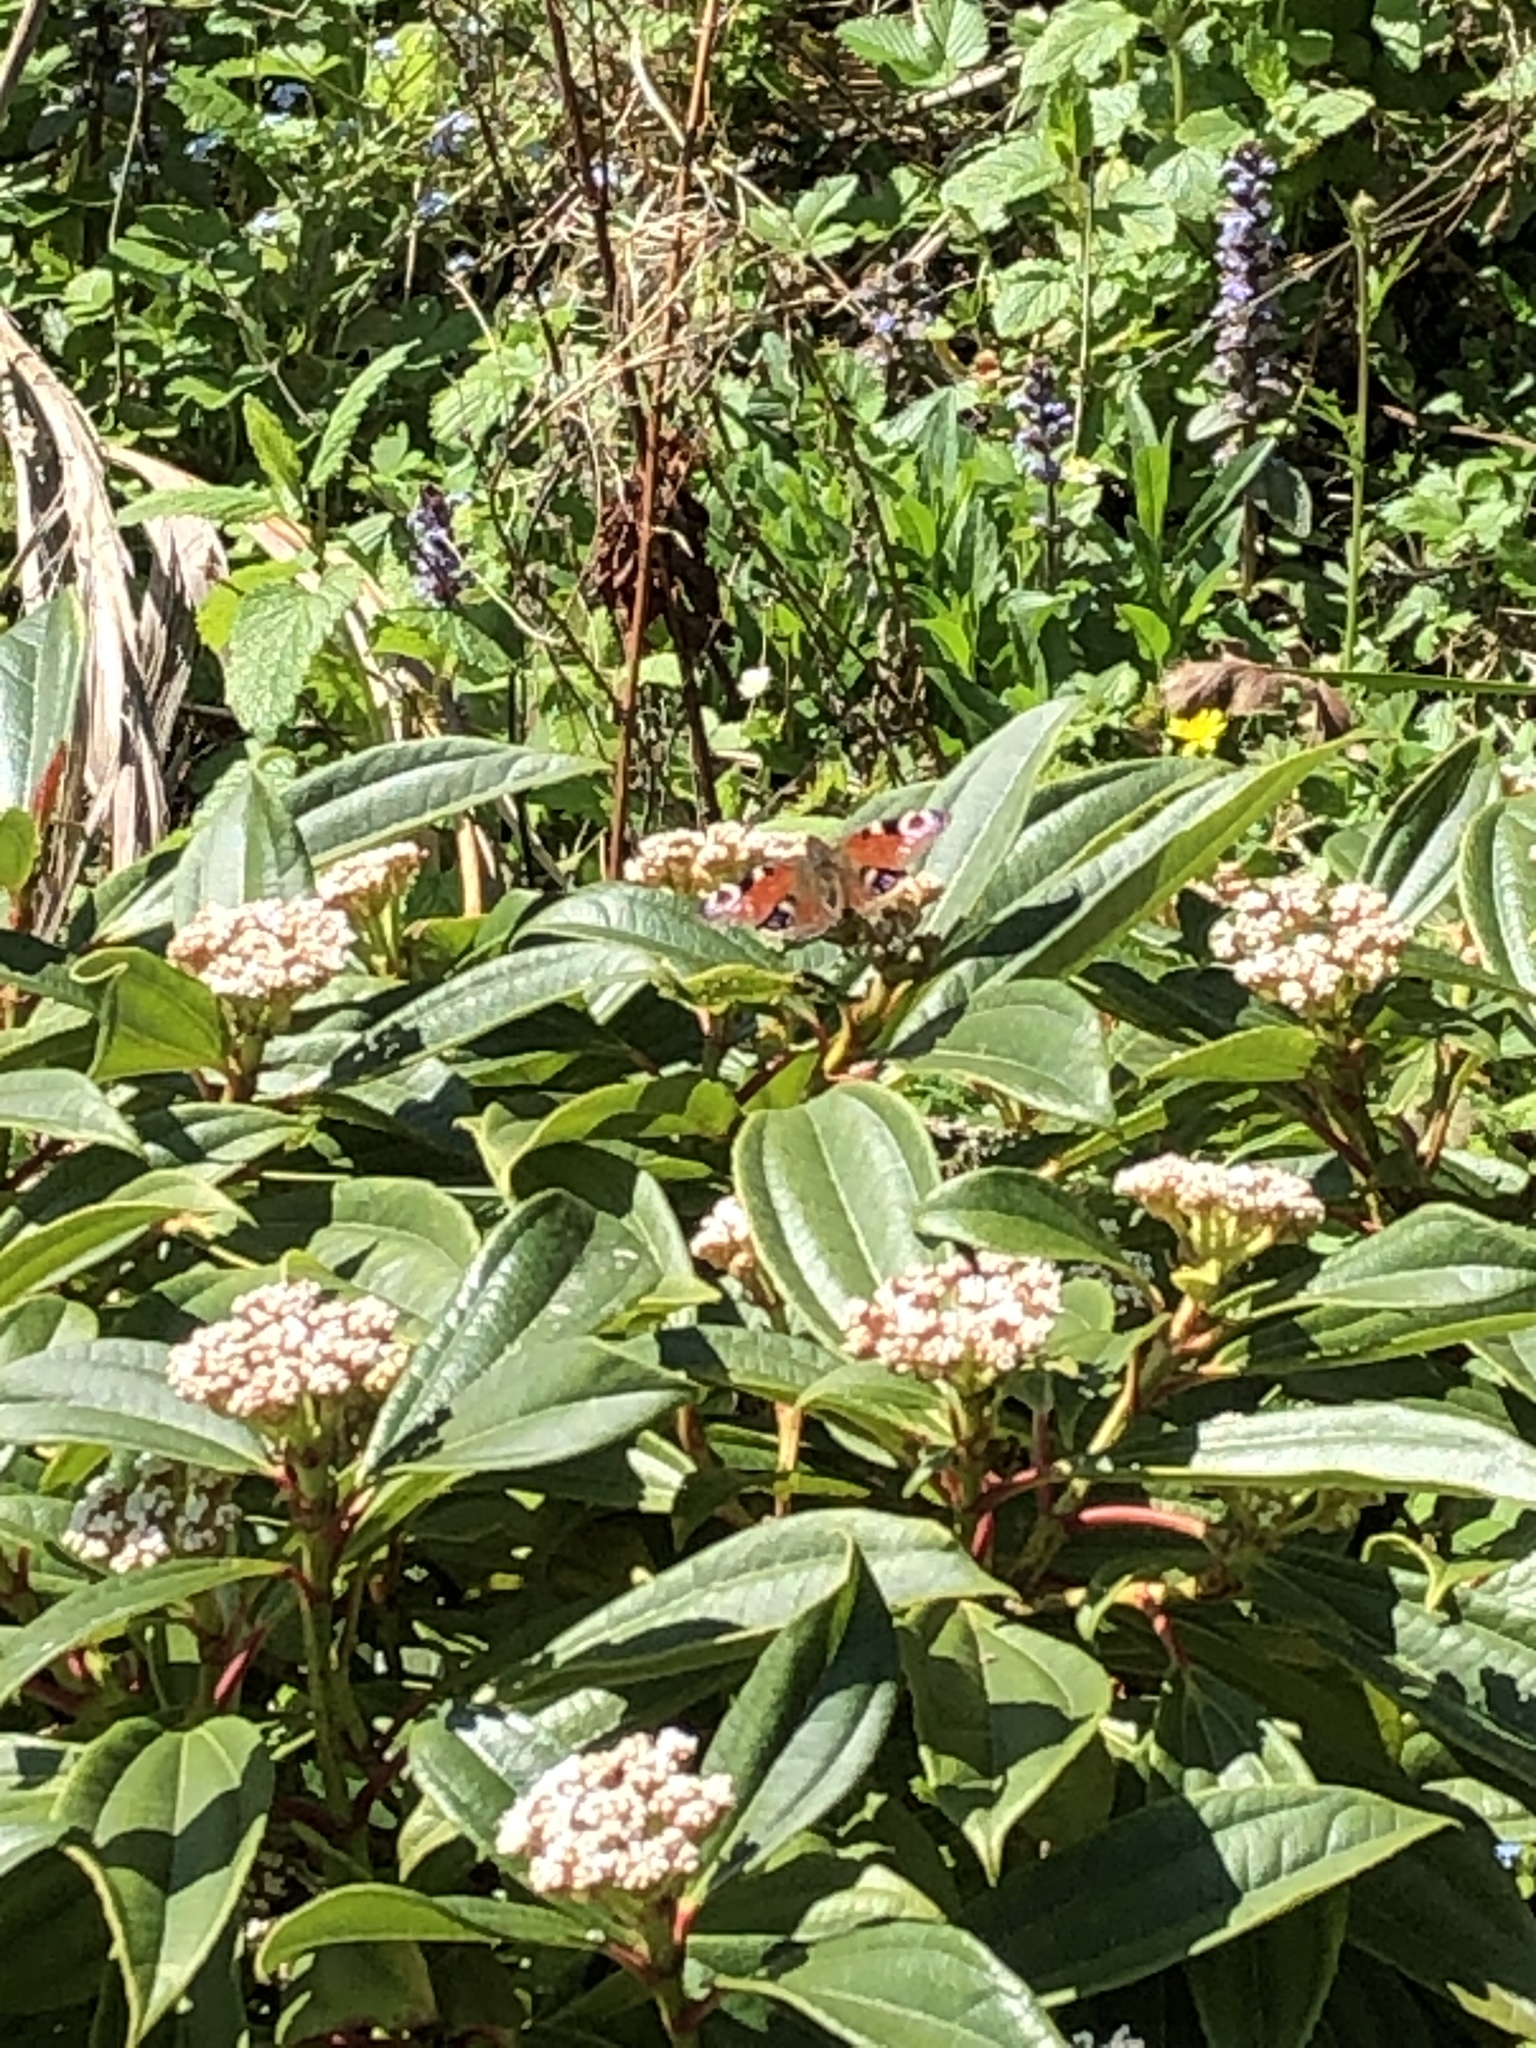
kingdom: Animalia
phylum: Arthropoda
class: Insecta
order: Lepidoptera
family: Nymphalidae
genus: Aglais
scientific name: Aglais io
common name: Peacock
